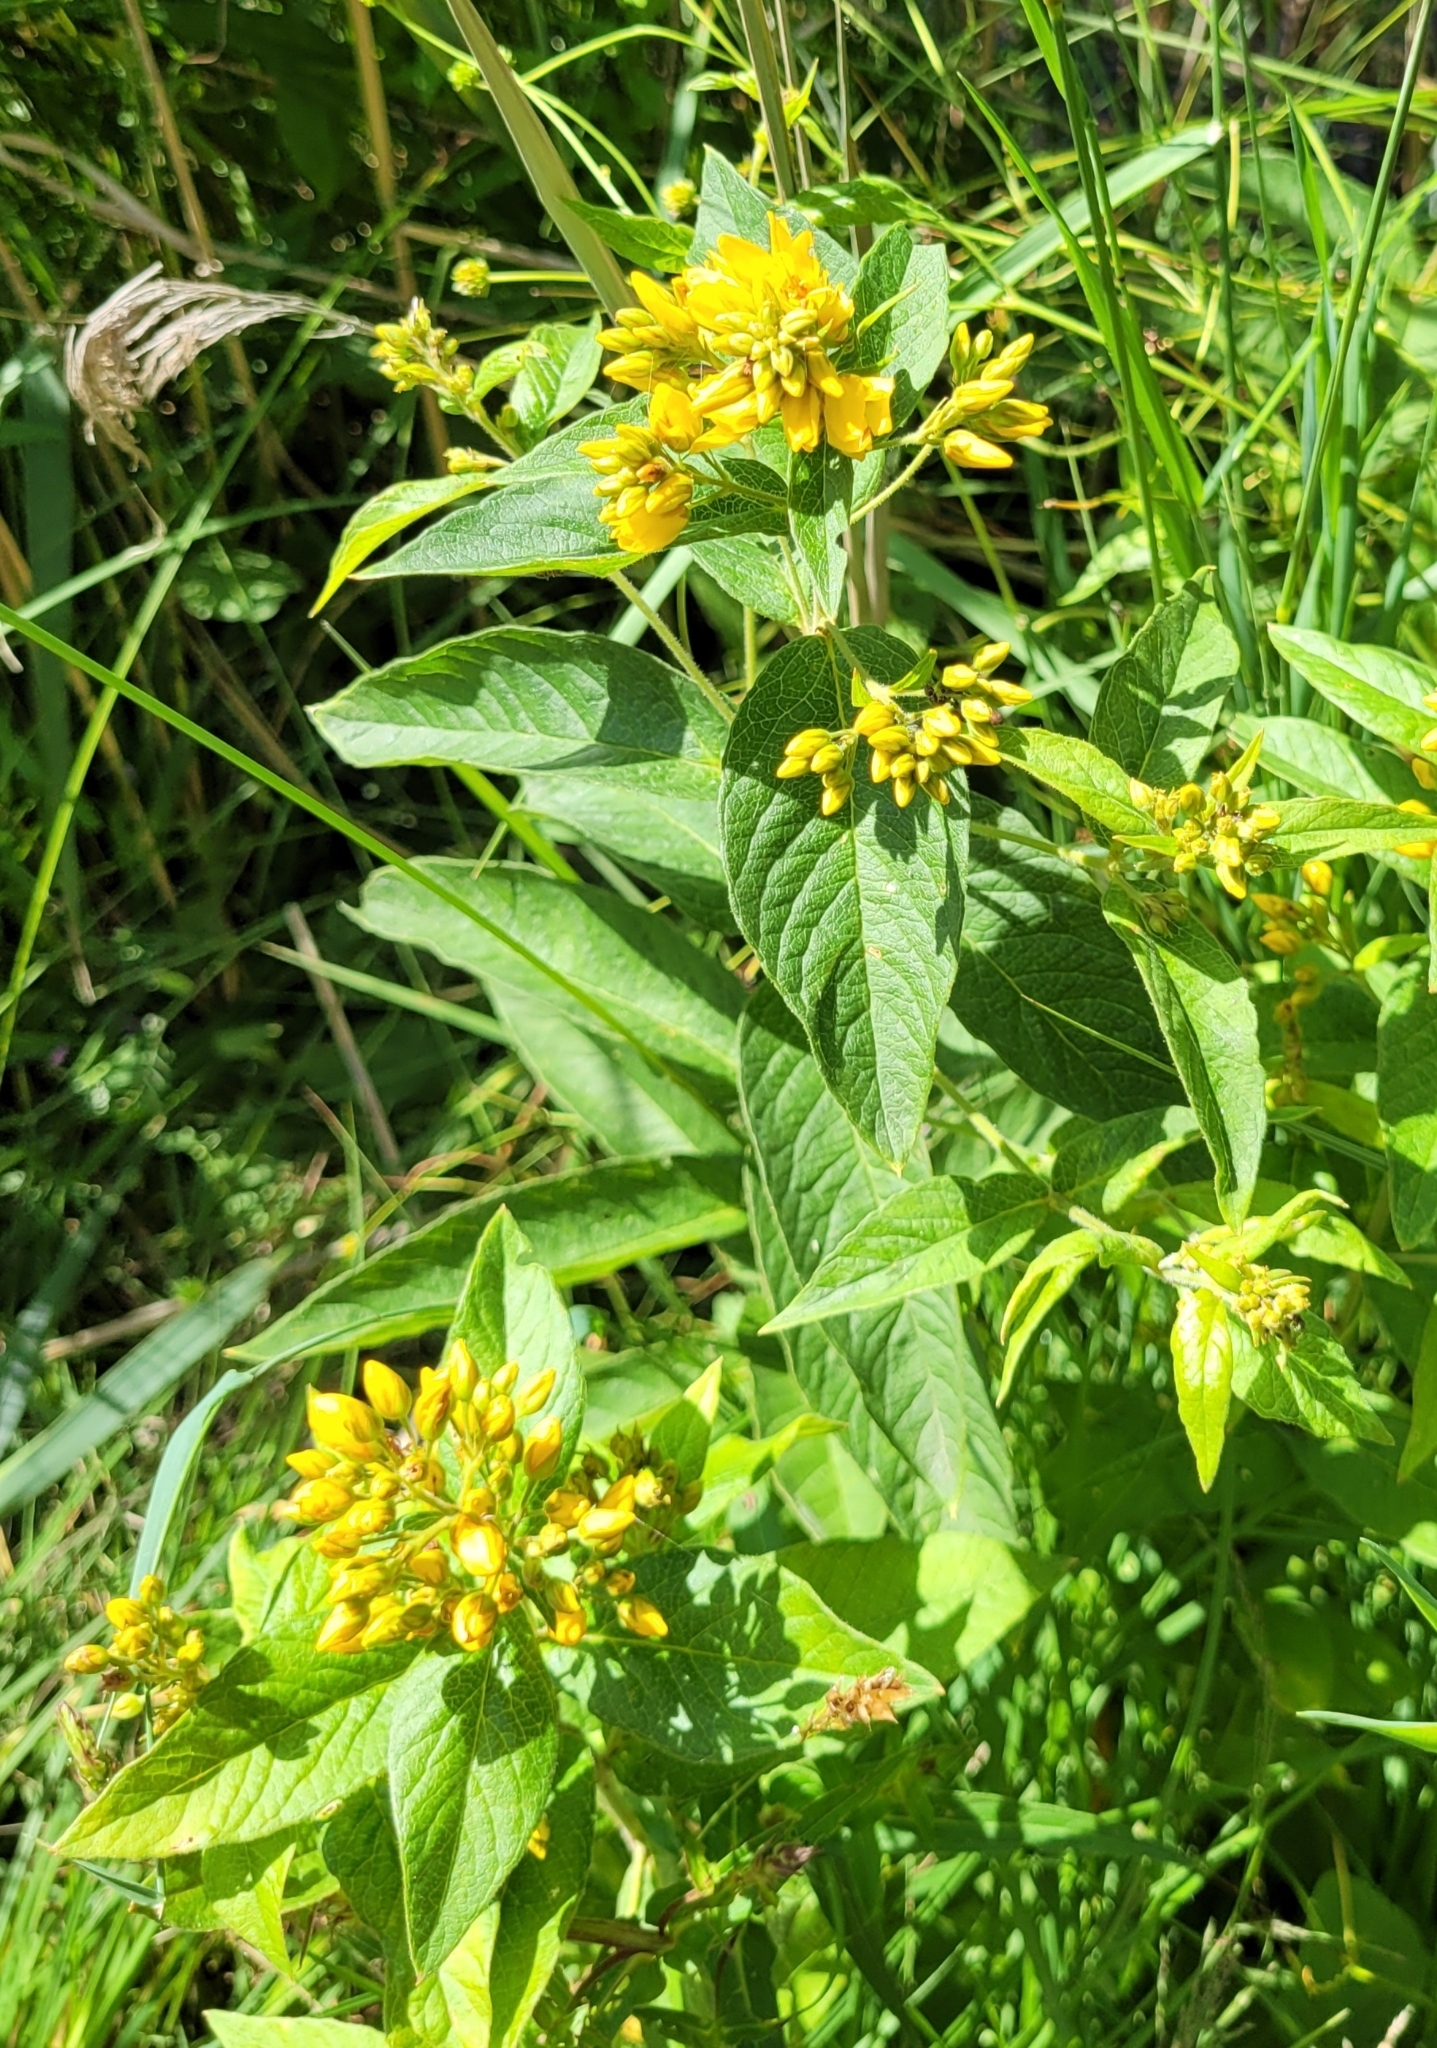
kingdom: Plantae
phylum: Tracheophyta
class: Magnoliopsida
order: Ericales
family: Primulaceae
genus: Lysimachia
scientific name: Lysimachia vulgaris
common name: Yellow loosestrife
